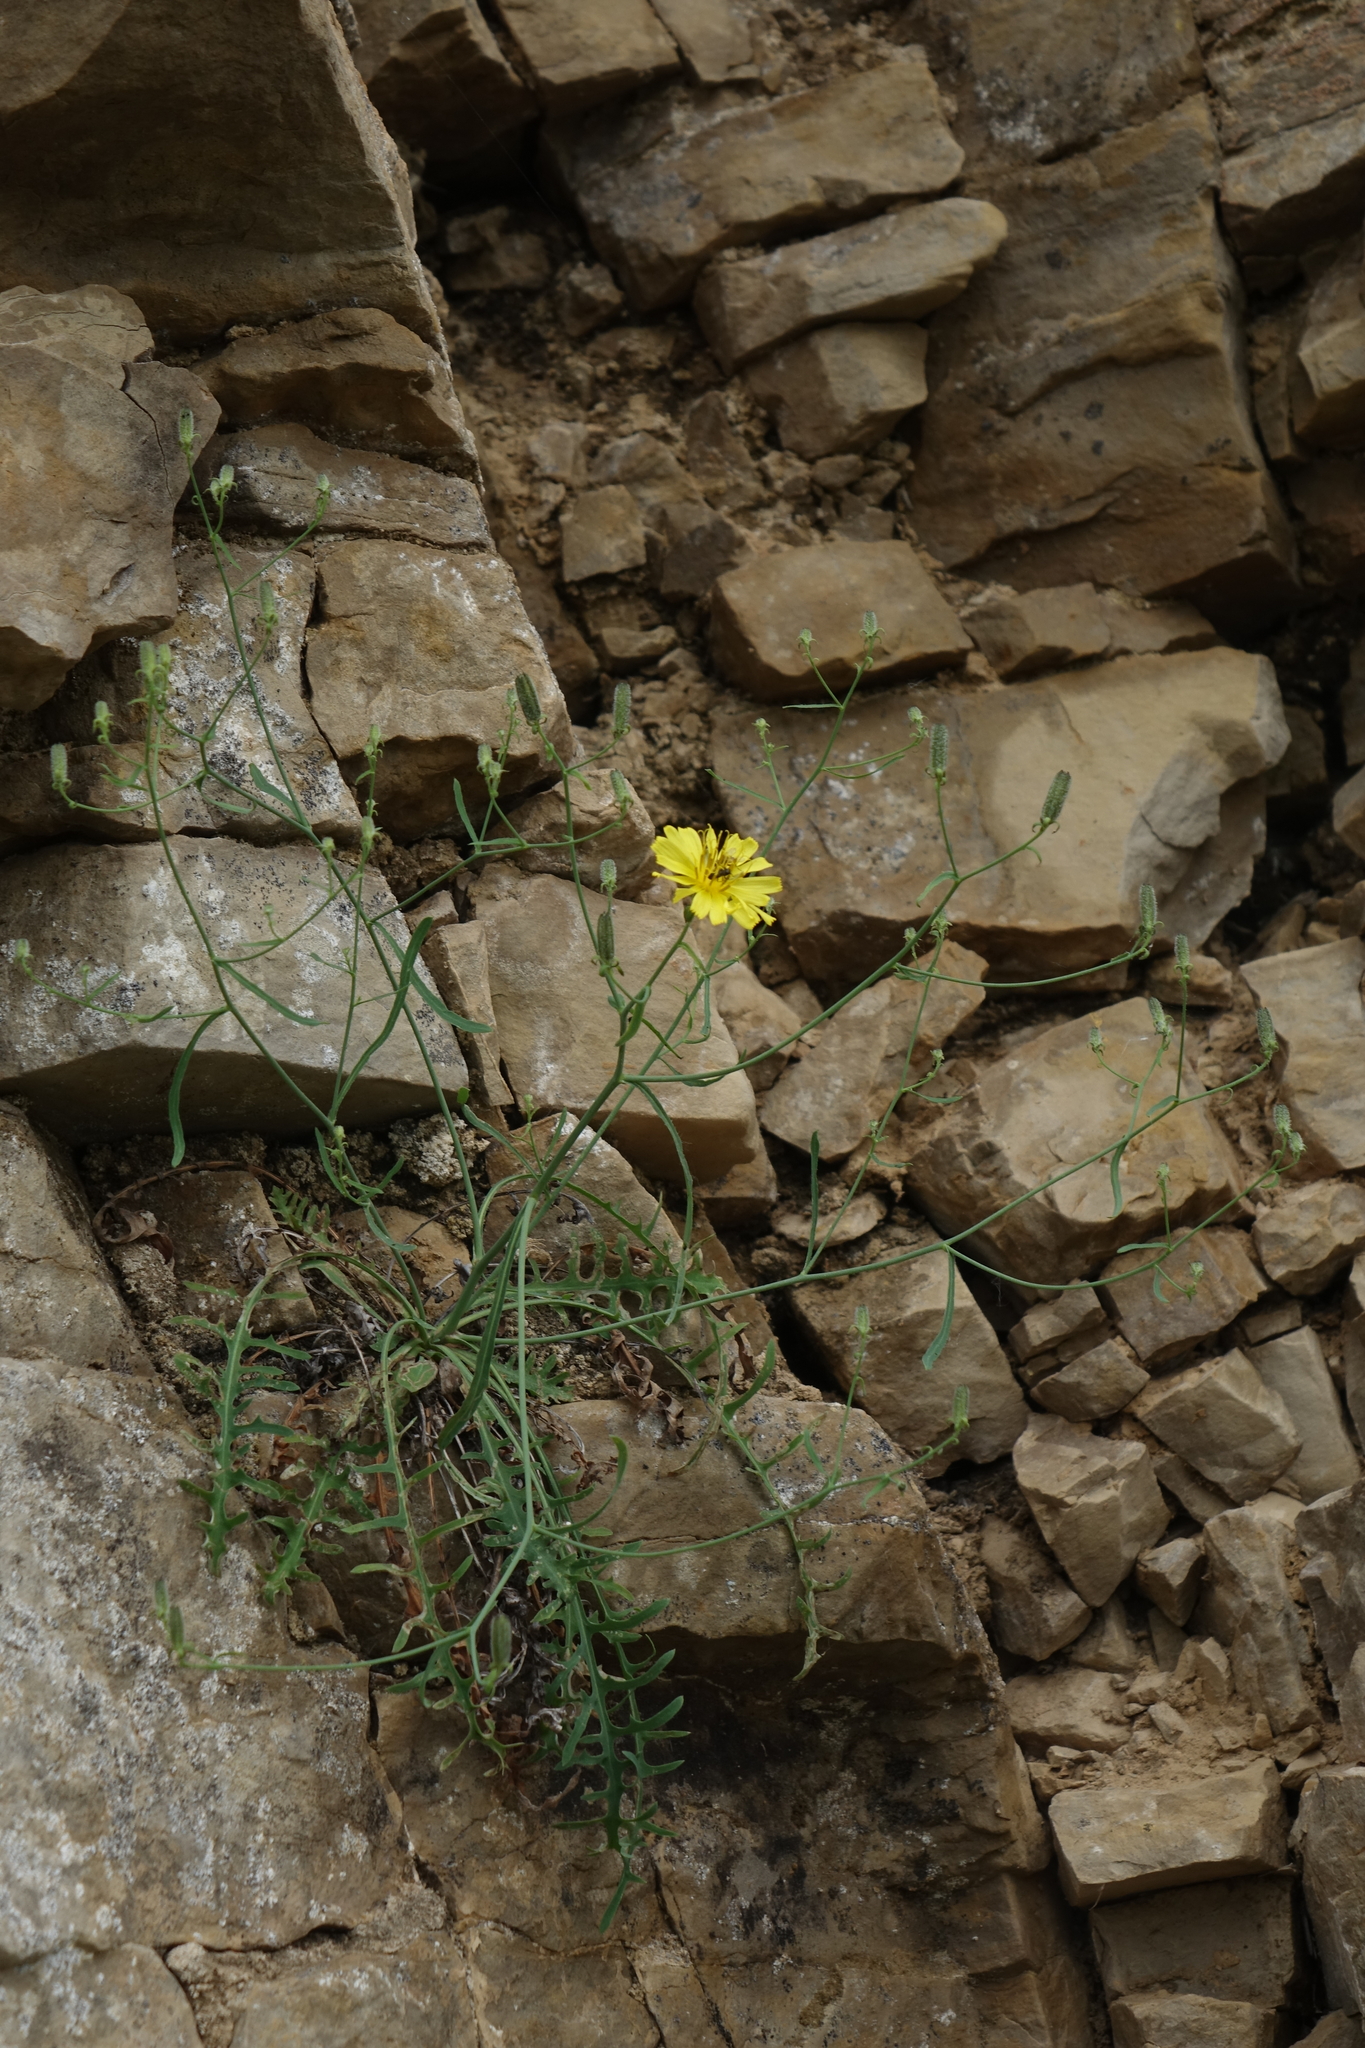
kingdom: Plantae
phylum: Tracheophyta
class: Magnoliopsida
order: Asterales
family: Asteraceae
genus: Crepidiastrum
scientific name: Crepidiastrum tenuifolium
